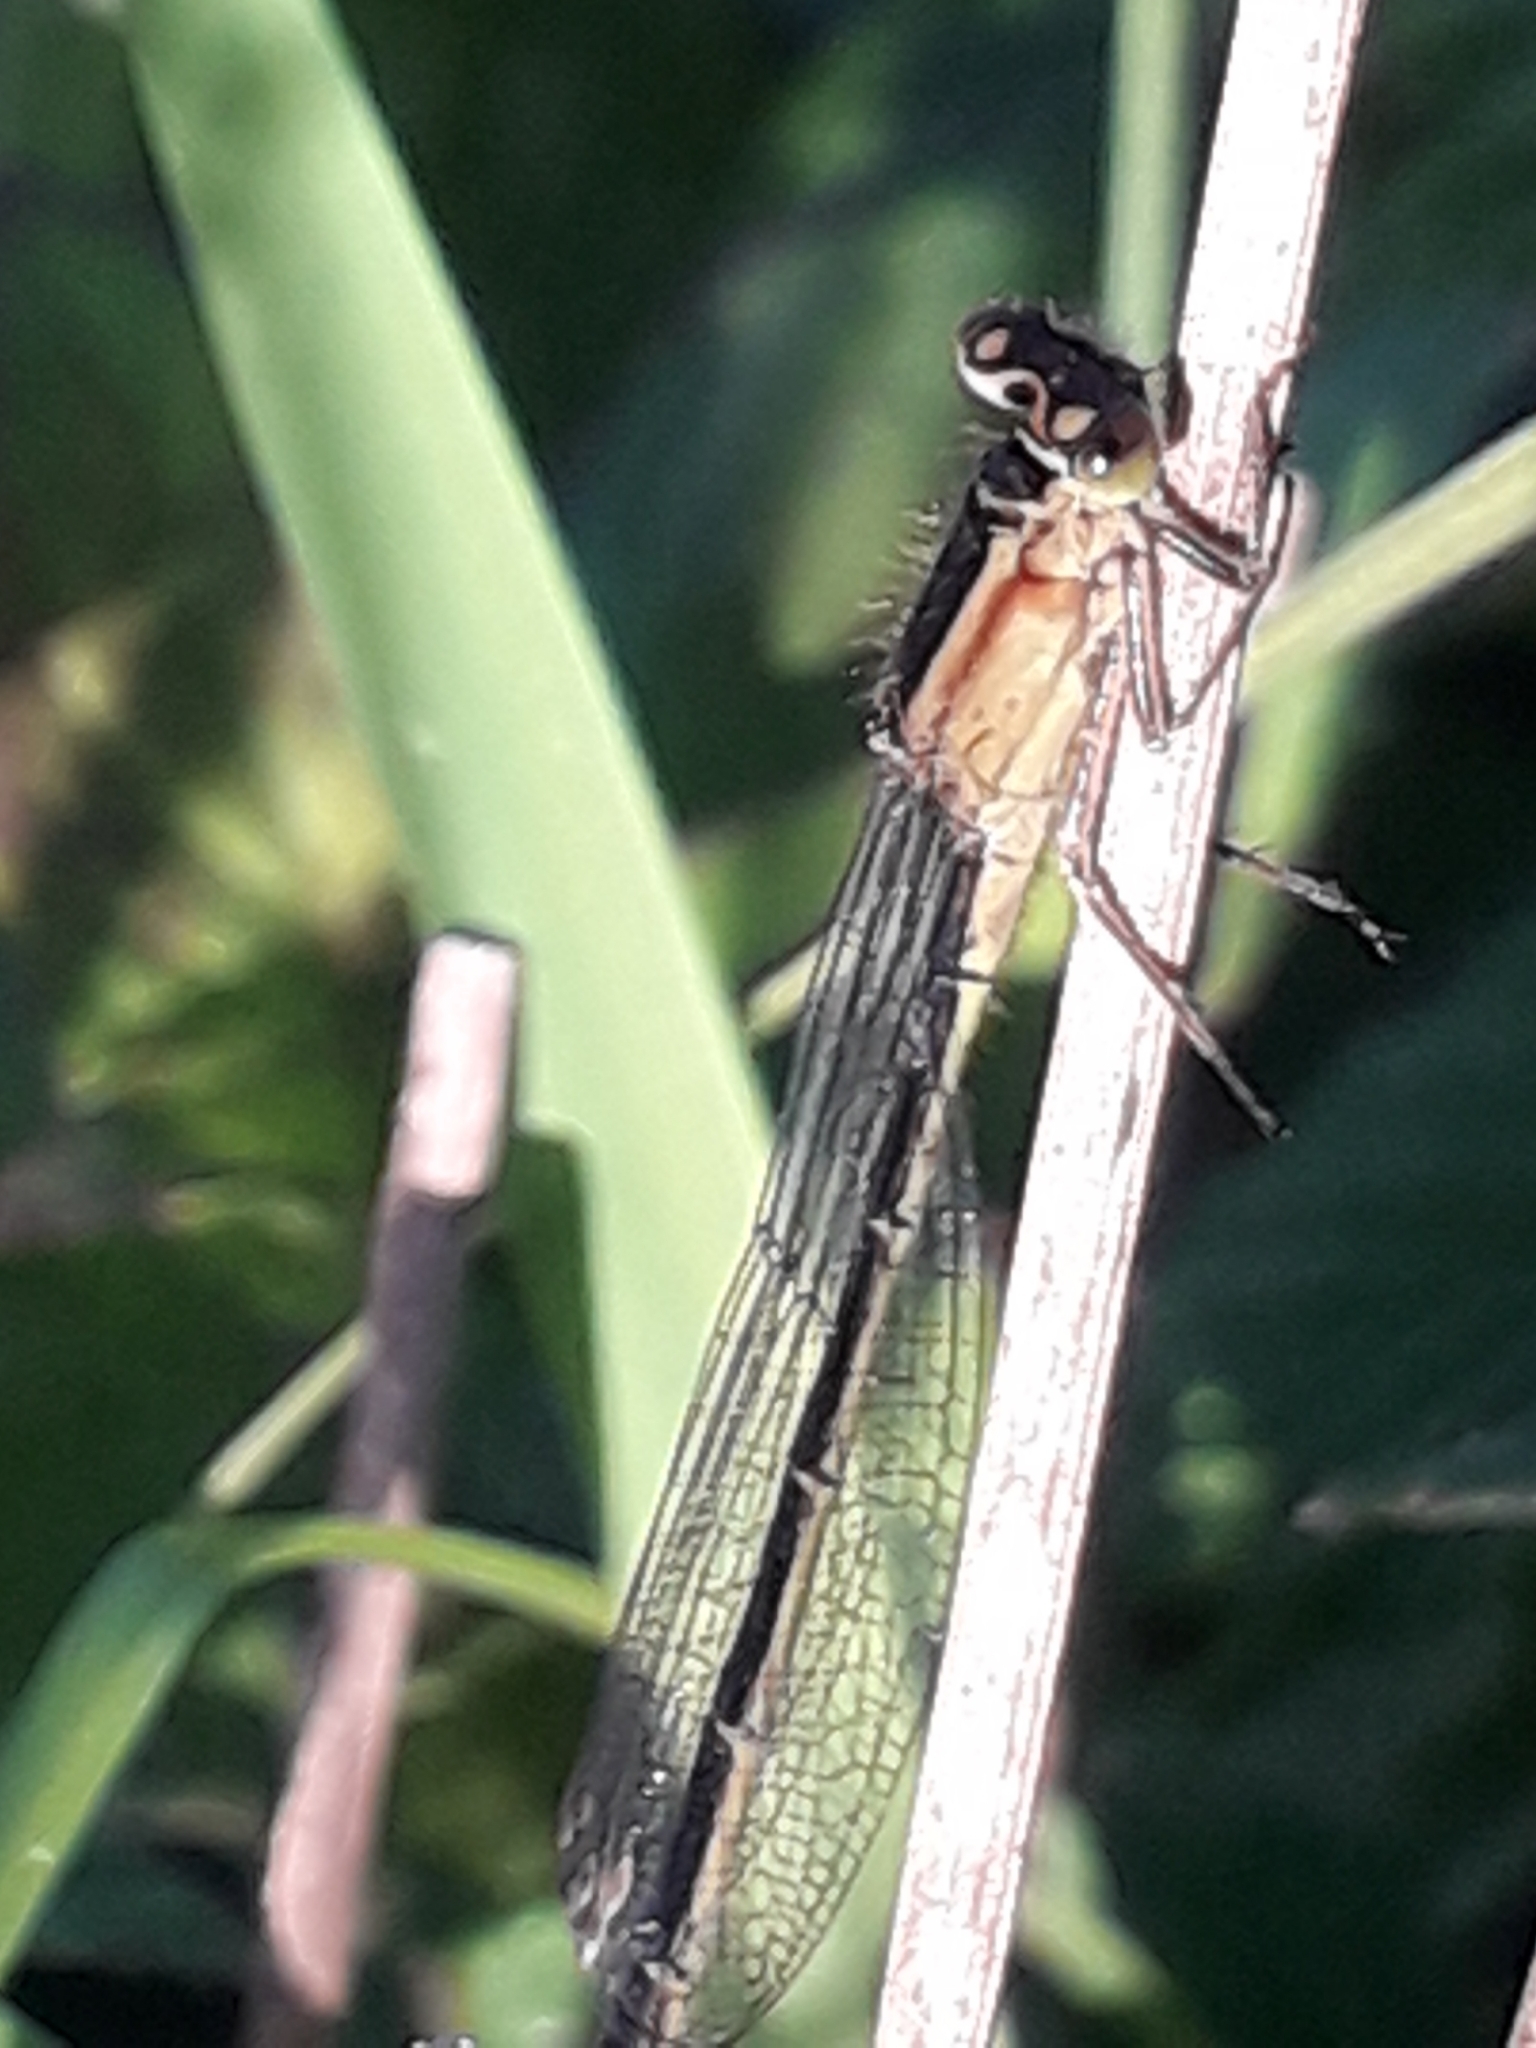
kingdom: Animalia
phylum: Arthropoda
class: Insecta
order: Odonata
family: Coenagrionidae
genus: Ischnura
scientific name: Ischnura elegans
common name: Blue-tailed damselfly
